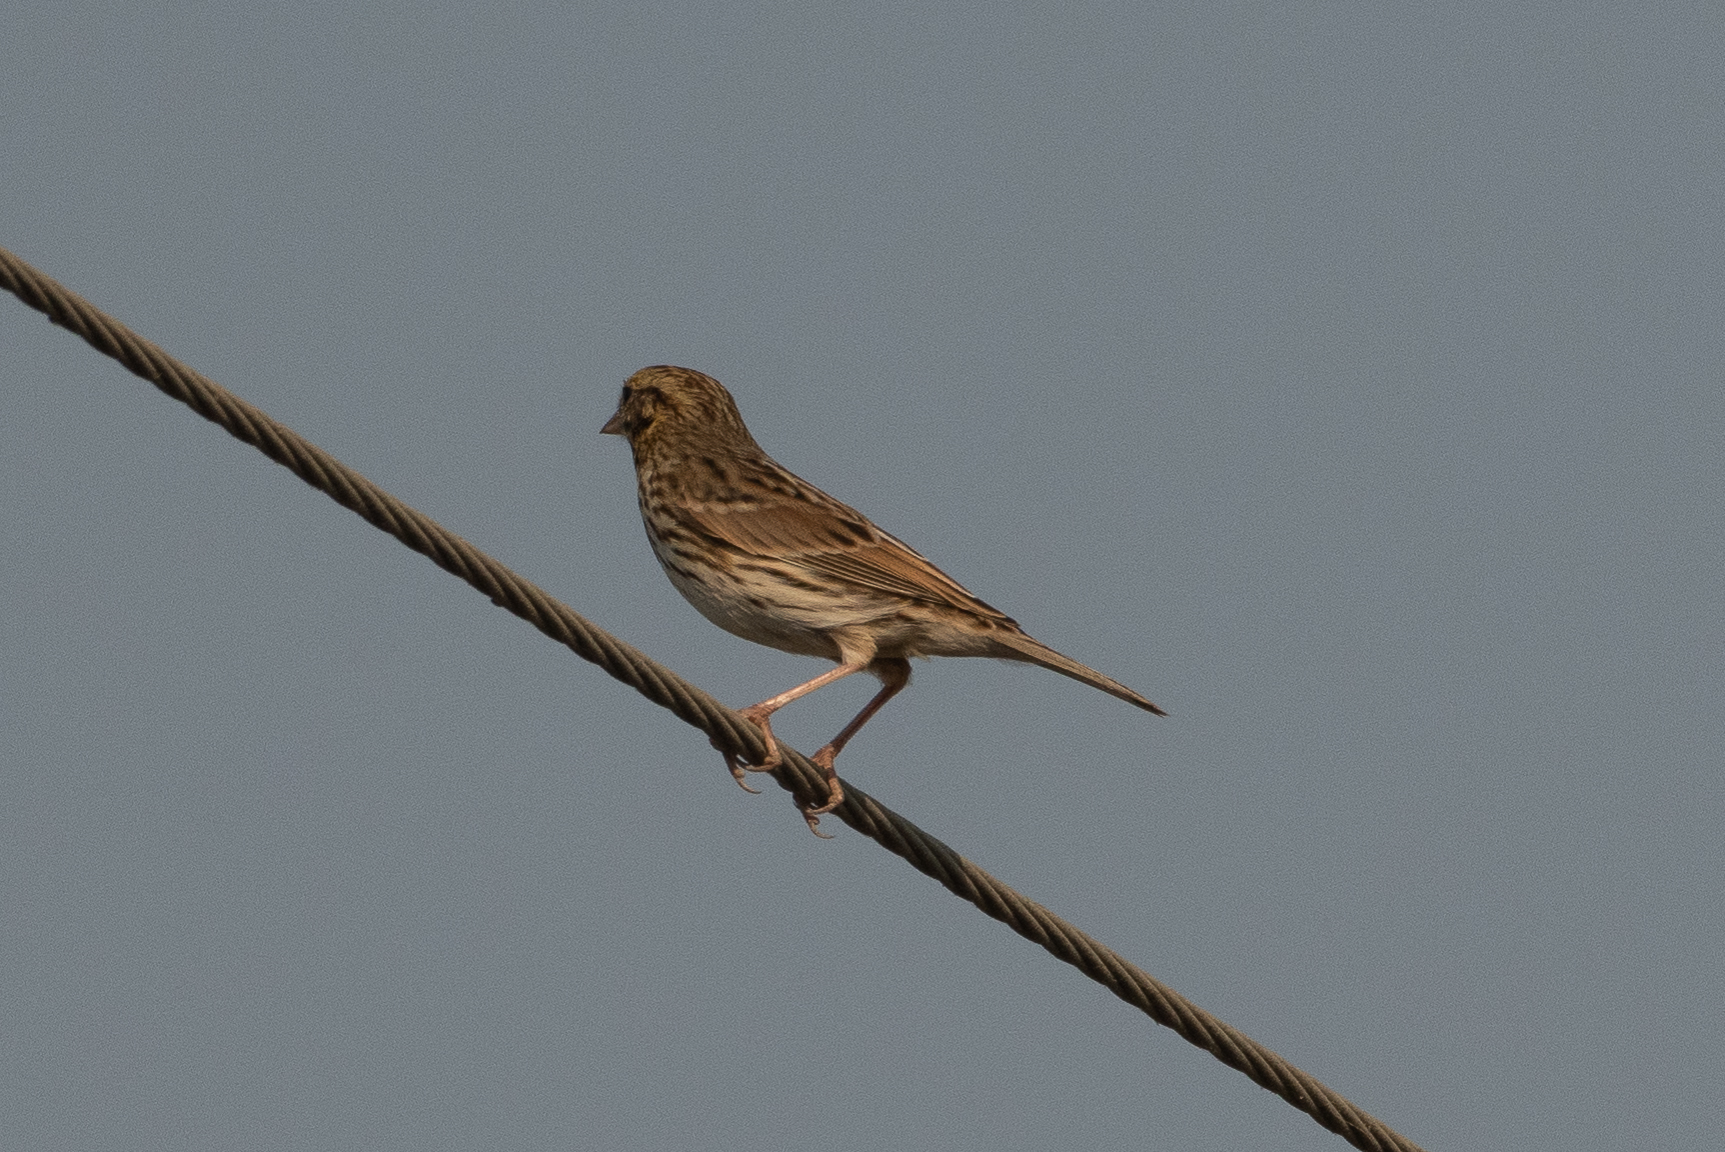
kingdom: Animalia
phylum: Chordata
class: Aves
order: Passeriformes
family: Passerellidae
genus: Passerculus
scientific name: Passerculus sandwichensis
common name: Savannah sparrow
